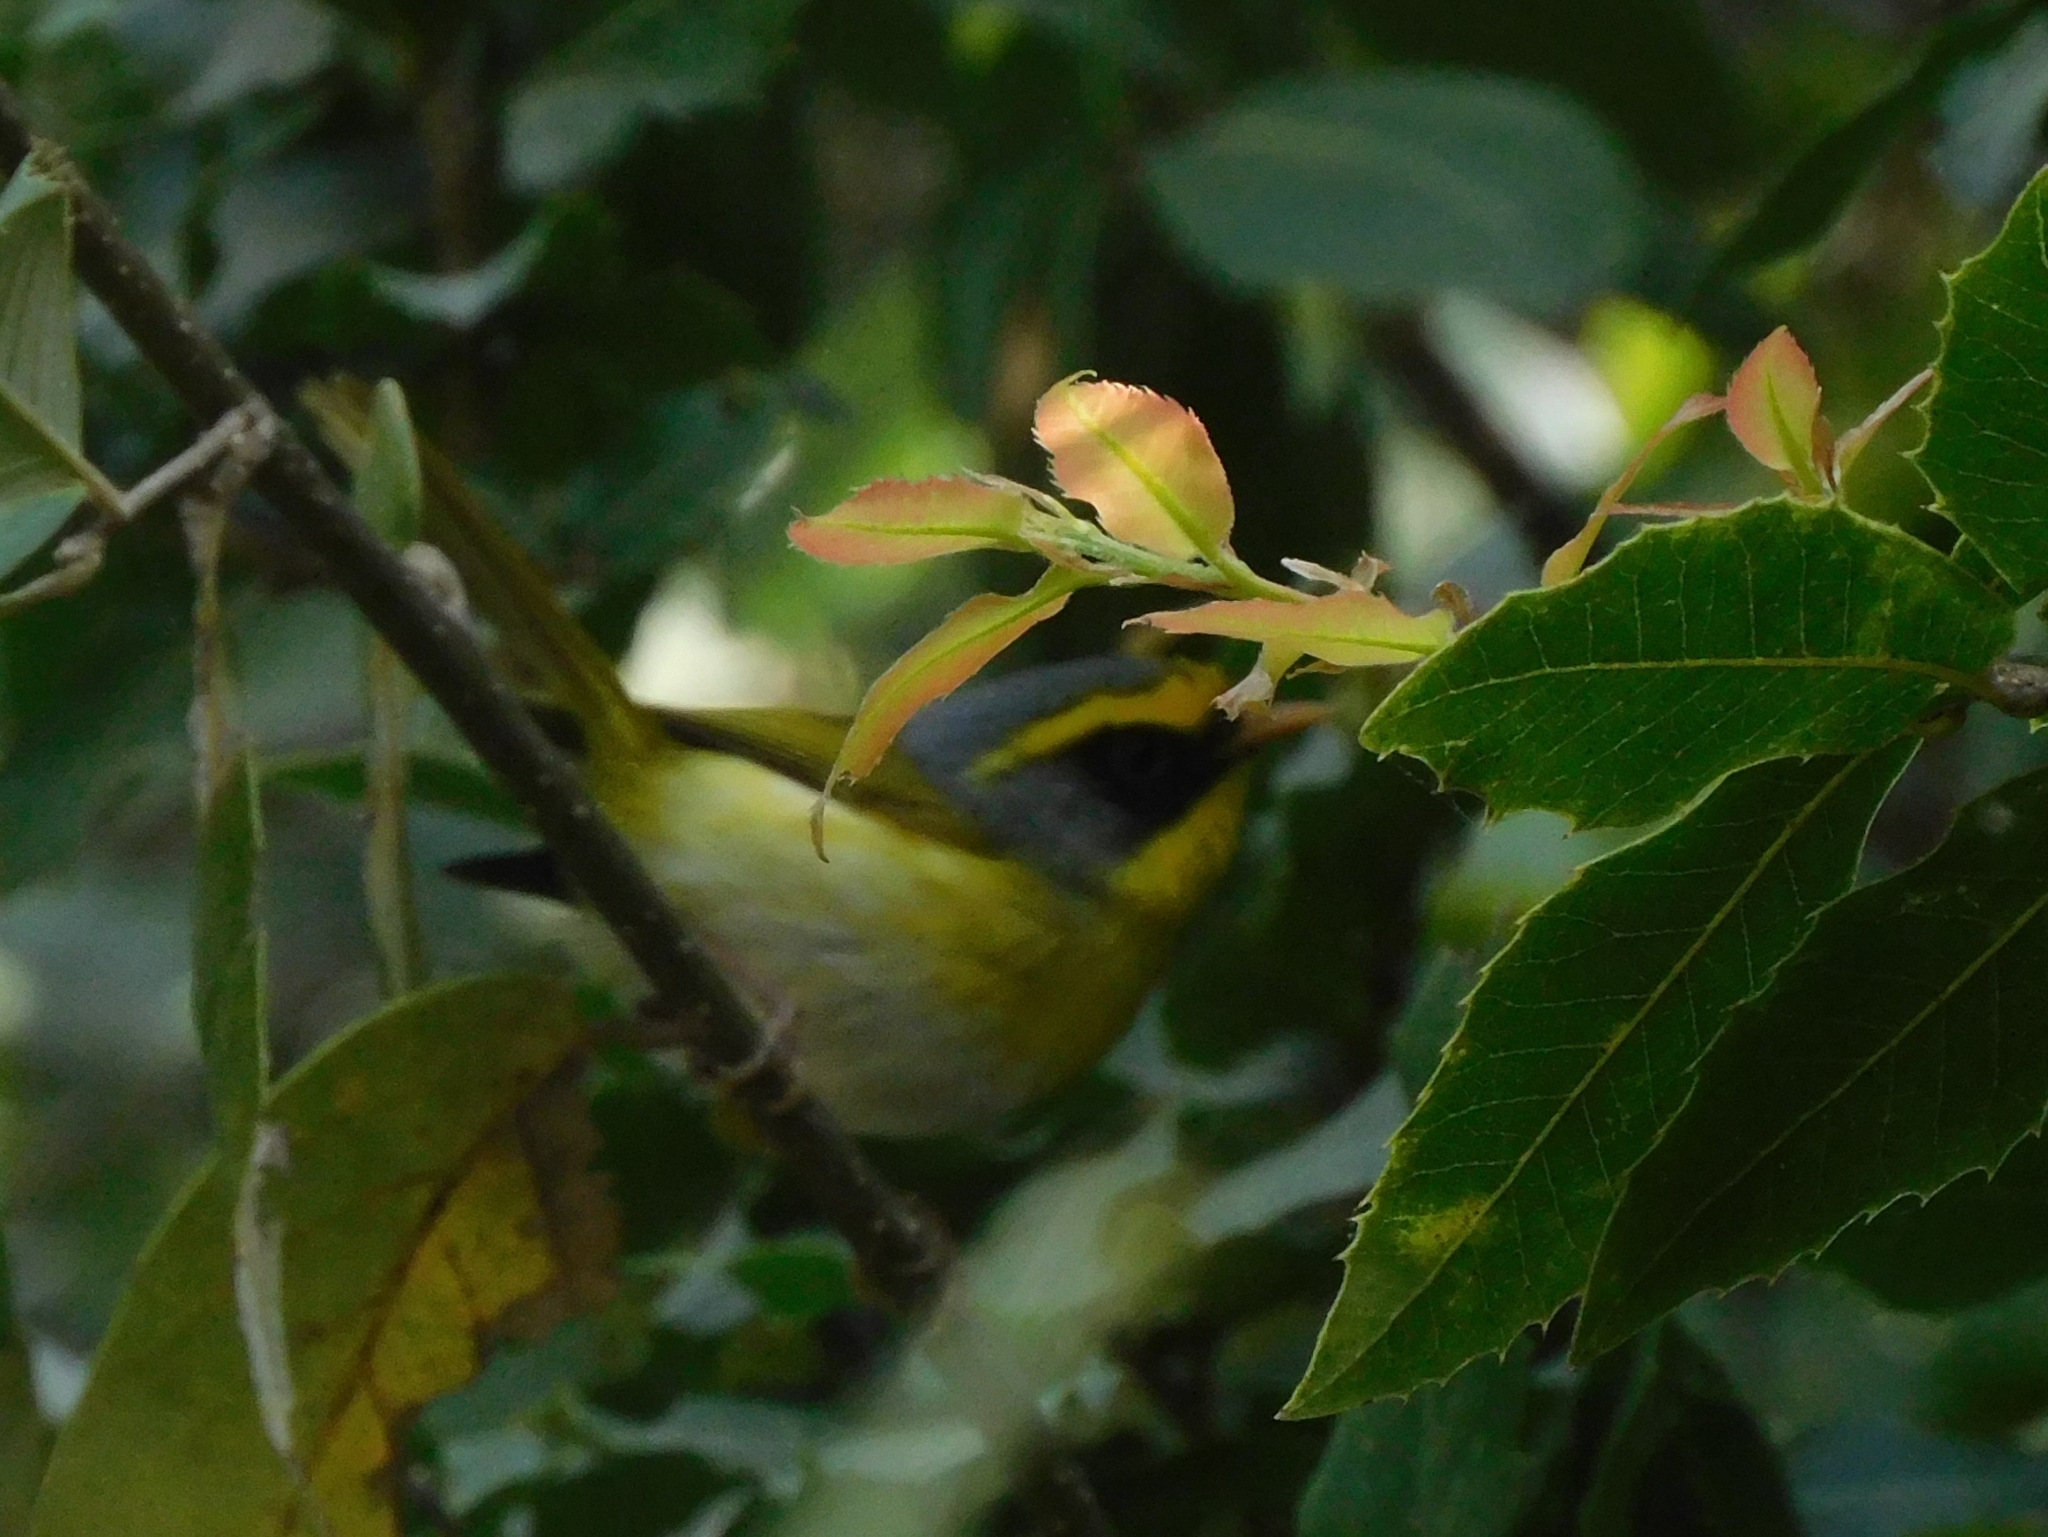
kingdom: Animalia
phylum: Chordata
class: Aves
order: Passeriformes
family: Cettiidae
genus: Abroscopus
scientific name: Abroscopus schisticeps
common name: Black-faced warbler
